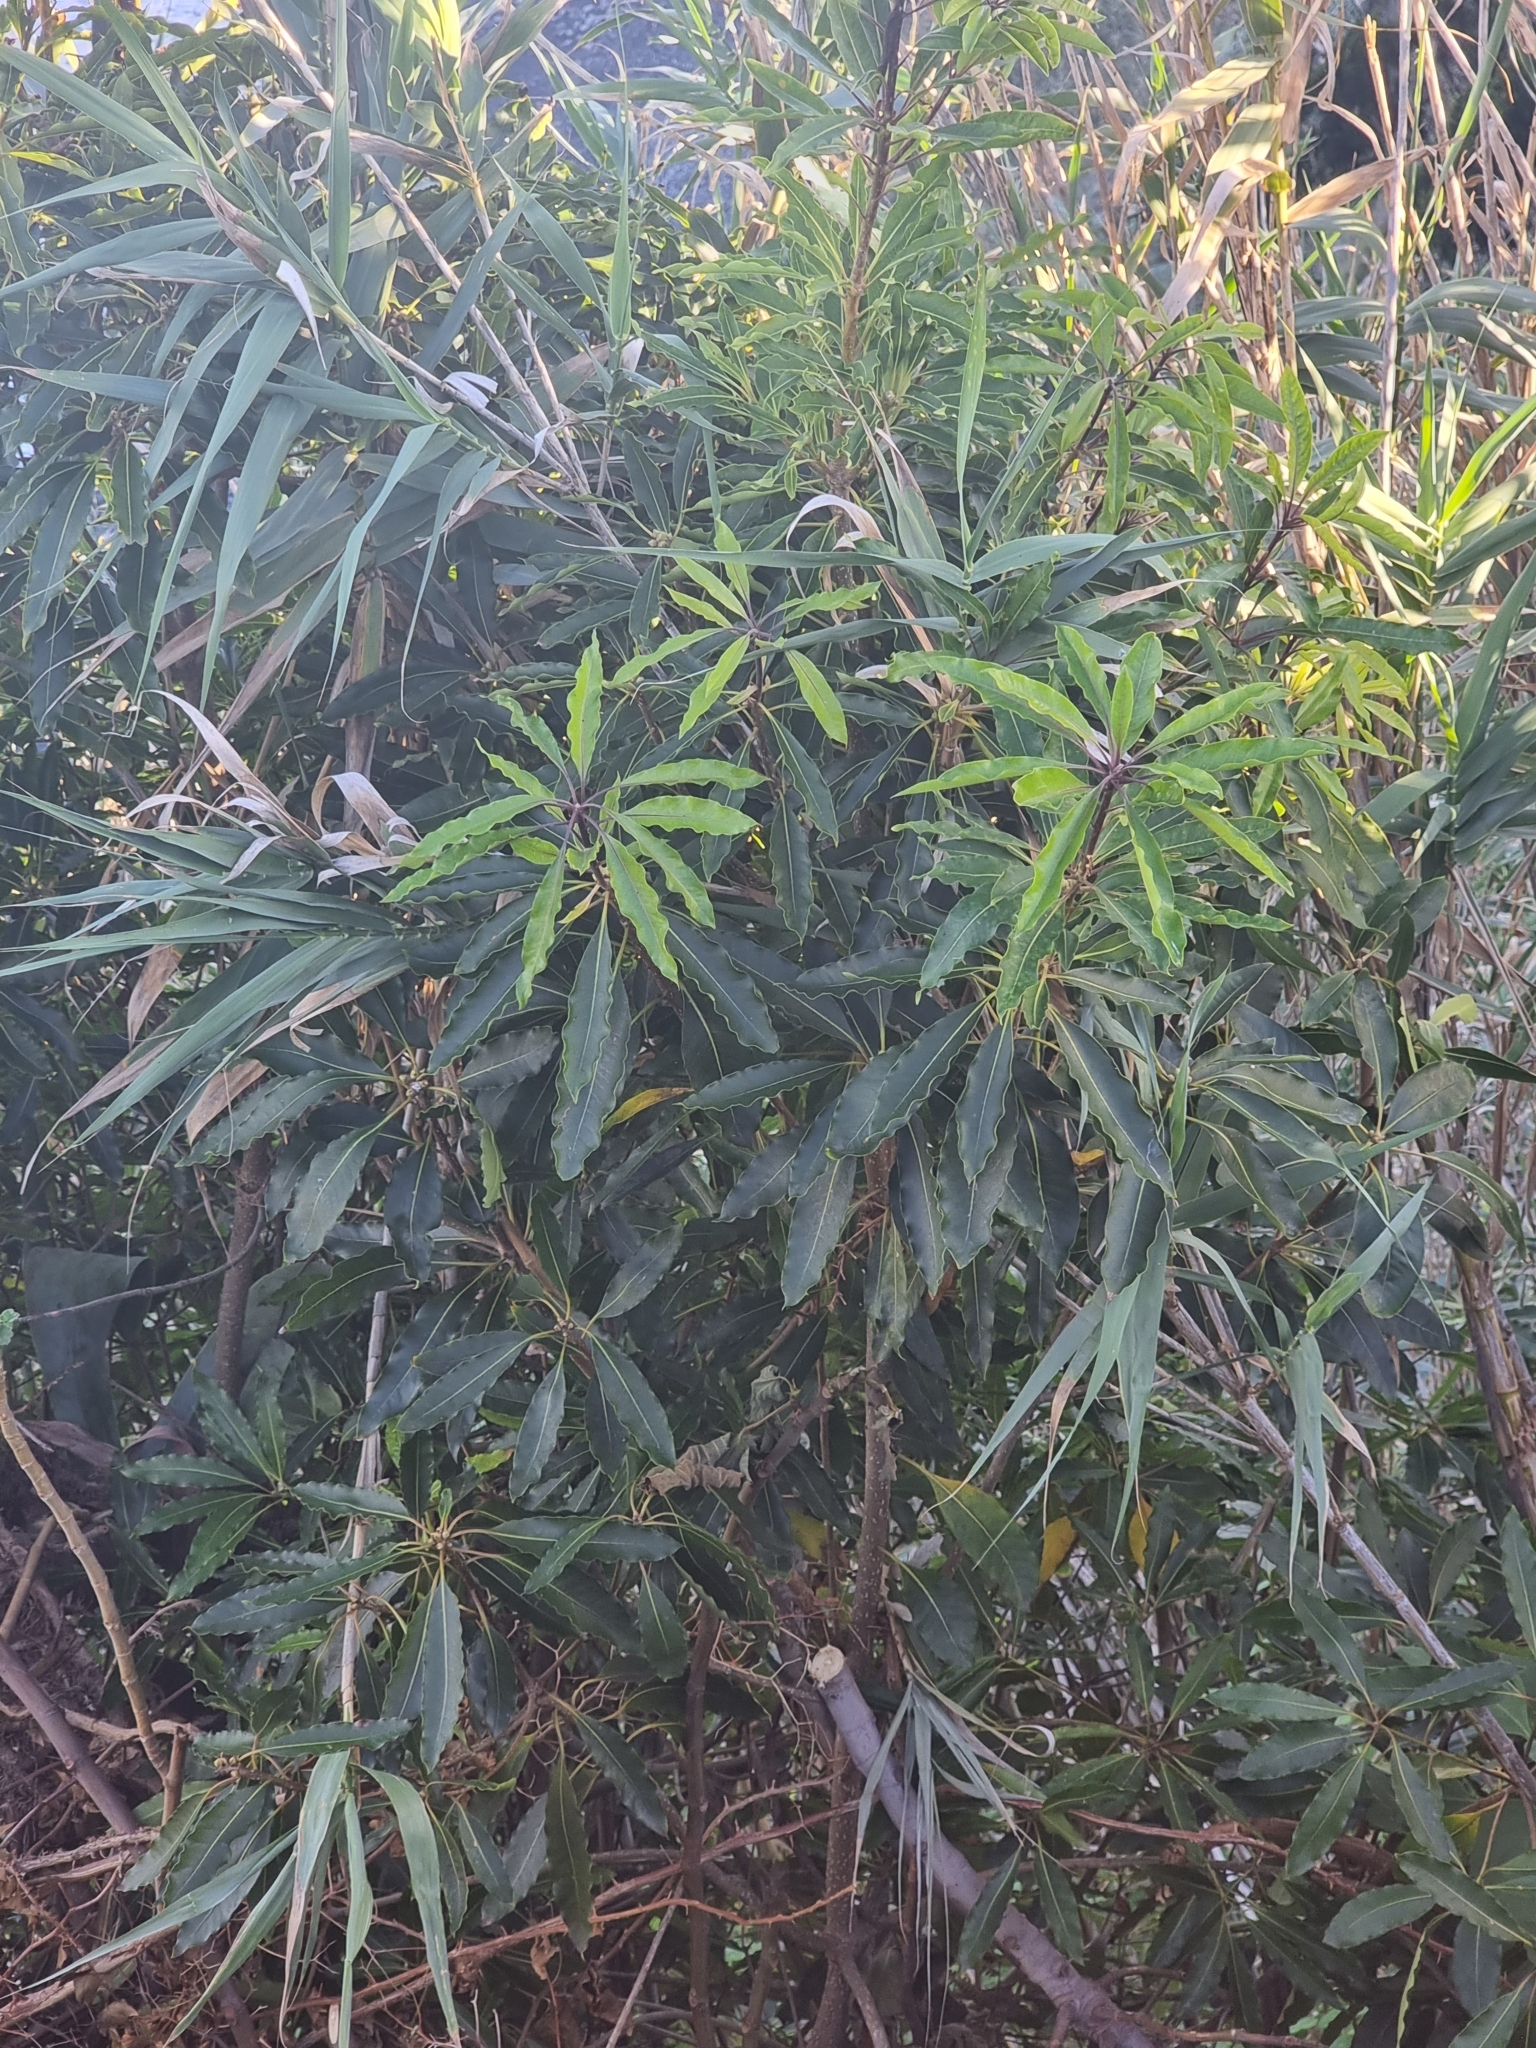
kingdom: Plantae
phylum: Tracheophyta
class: Magnoliopsida
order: Apiales
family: Pittosporaceae
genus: Pittosporum
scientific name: Pittosporum undulatum
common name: Australian cheesewood
